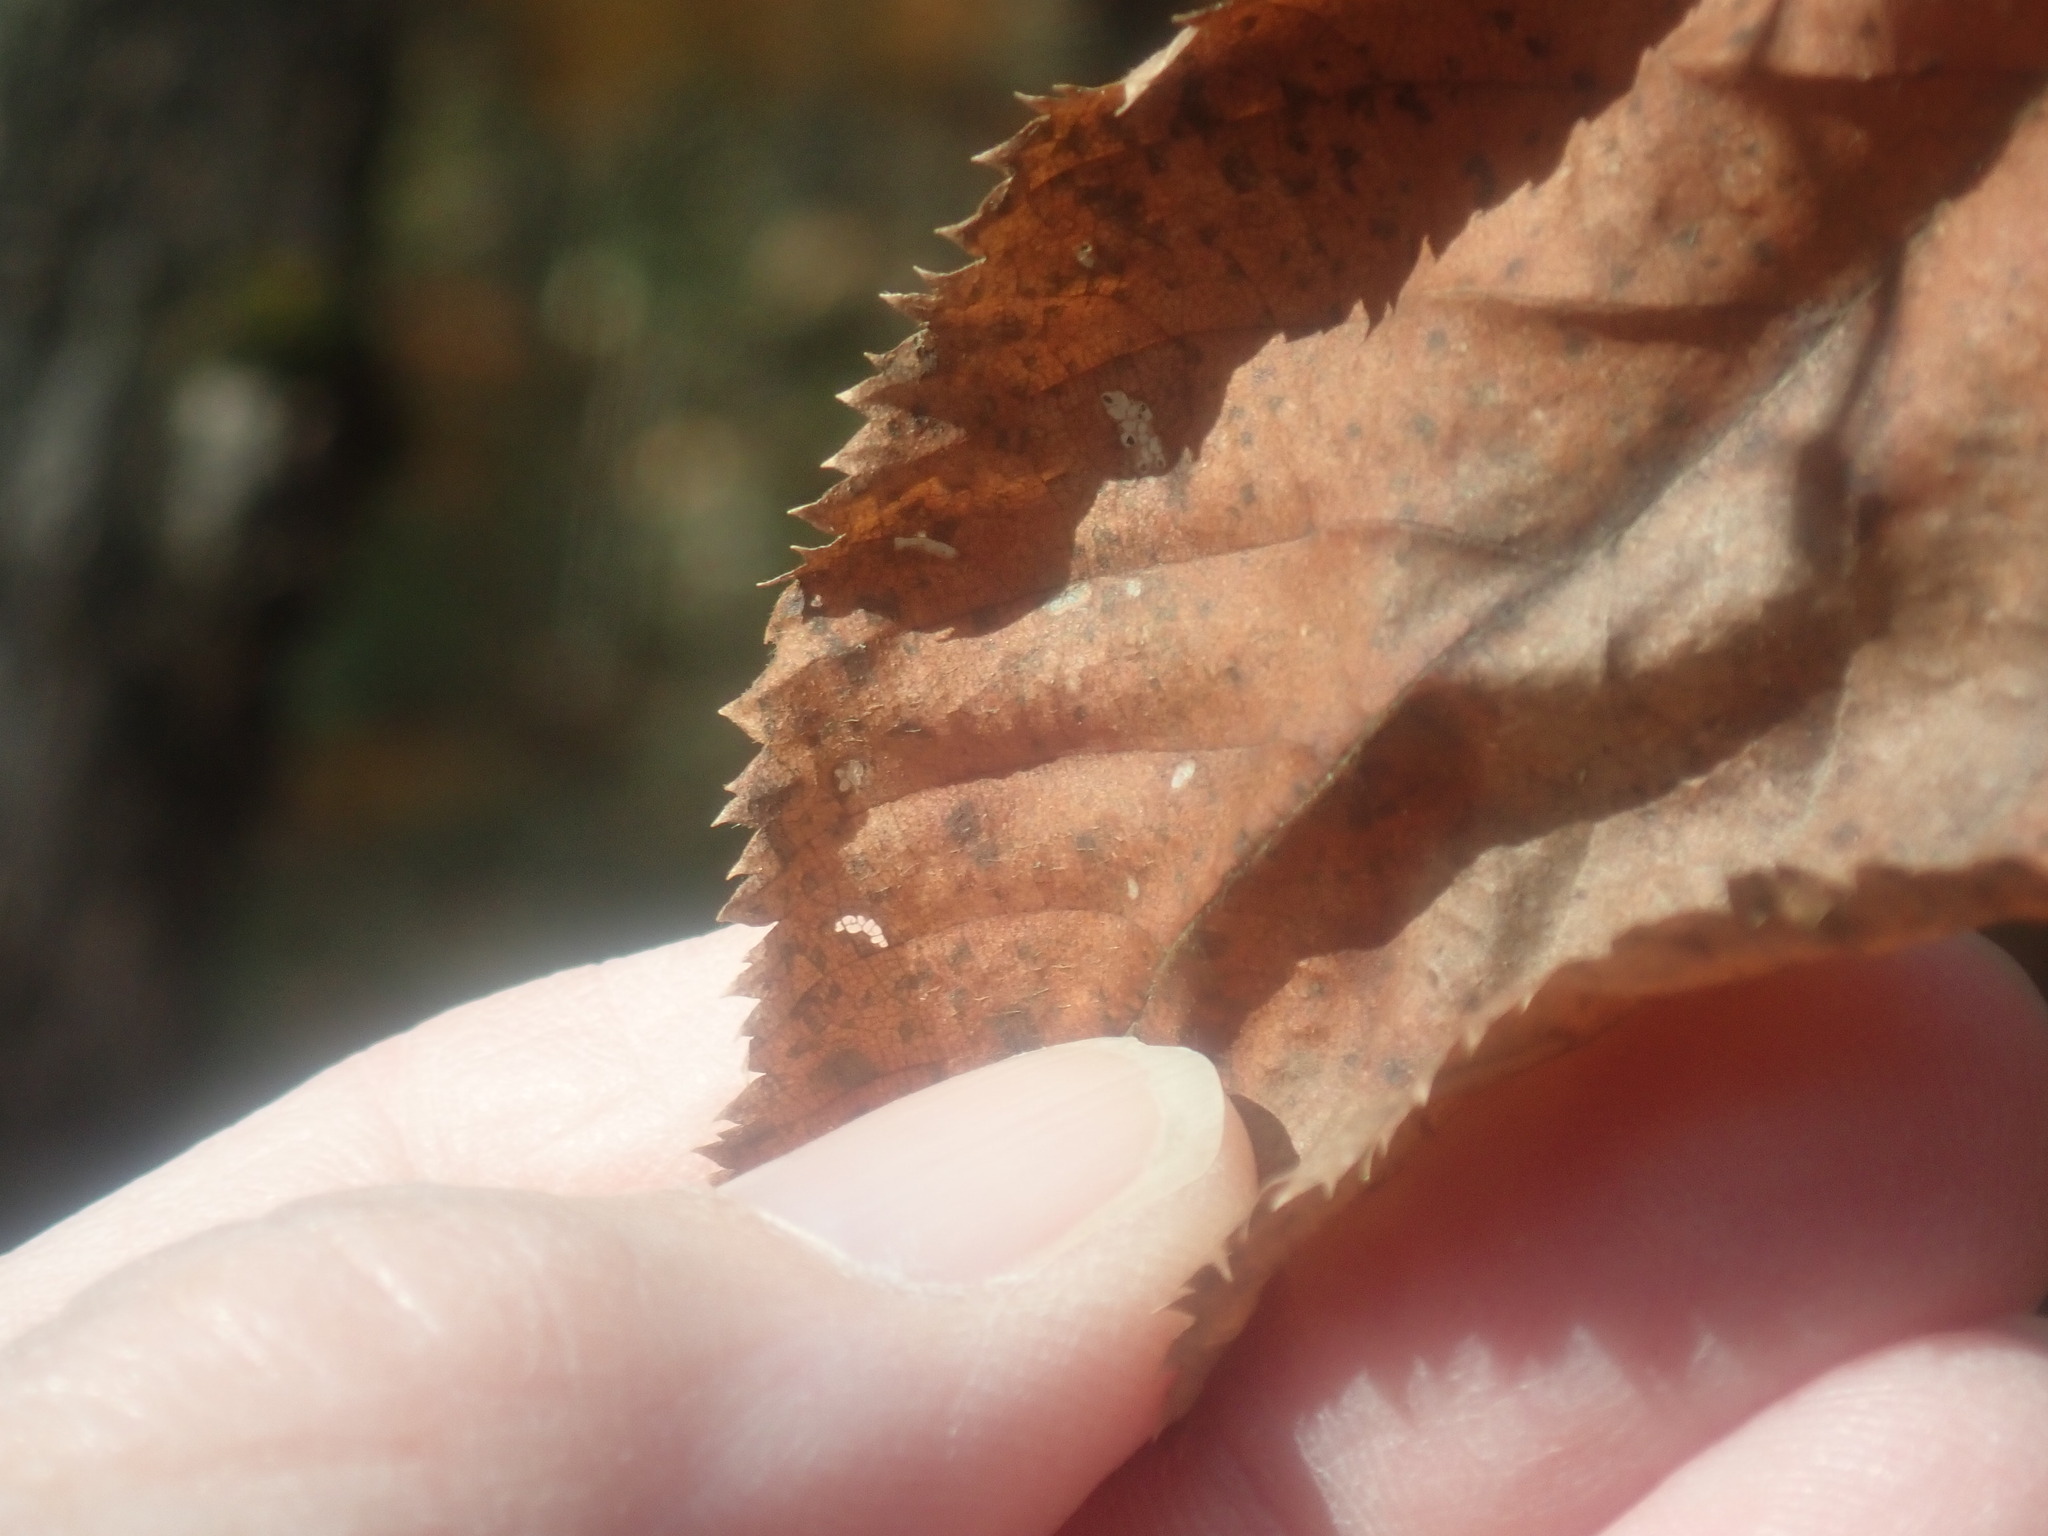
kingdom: Plantae
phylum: Tracheophyta
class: Magnoliopsida
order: Fagales
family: Betulaceae
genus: Ostrya
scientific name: Ostrya virginiana
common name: Ironwood
